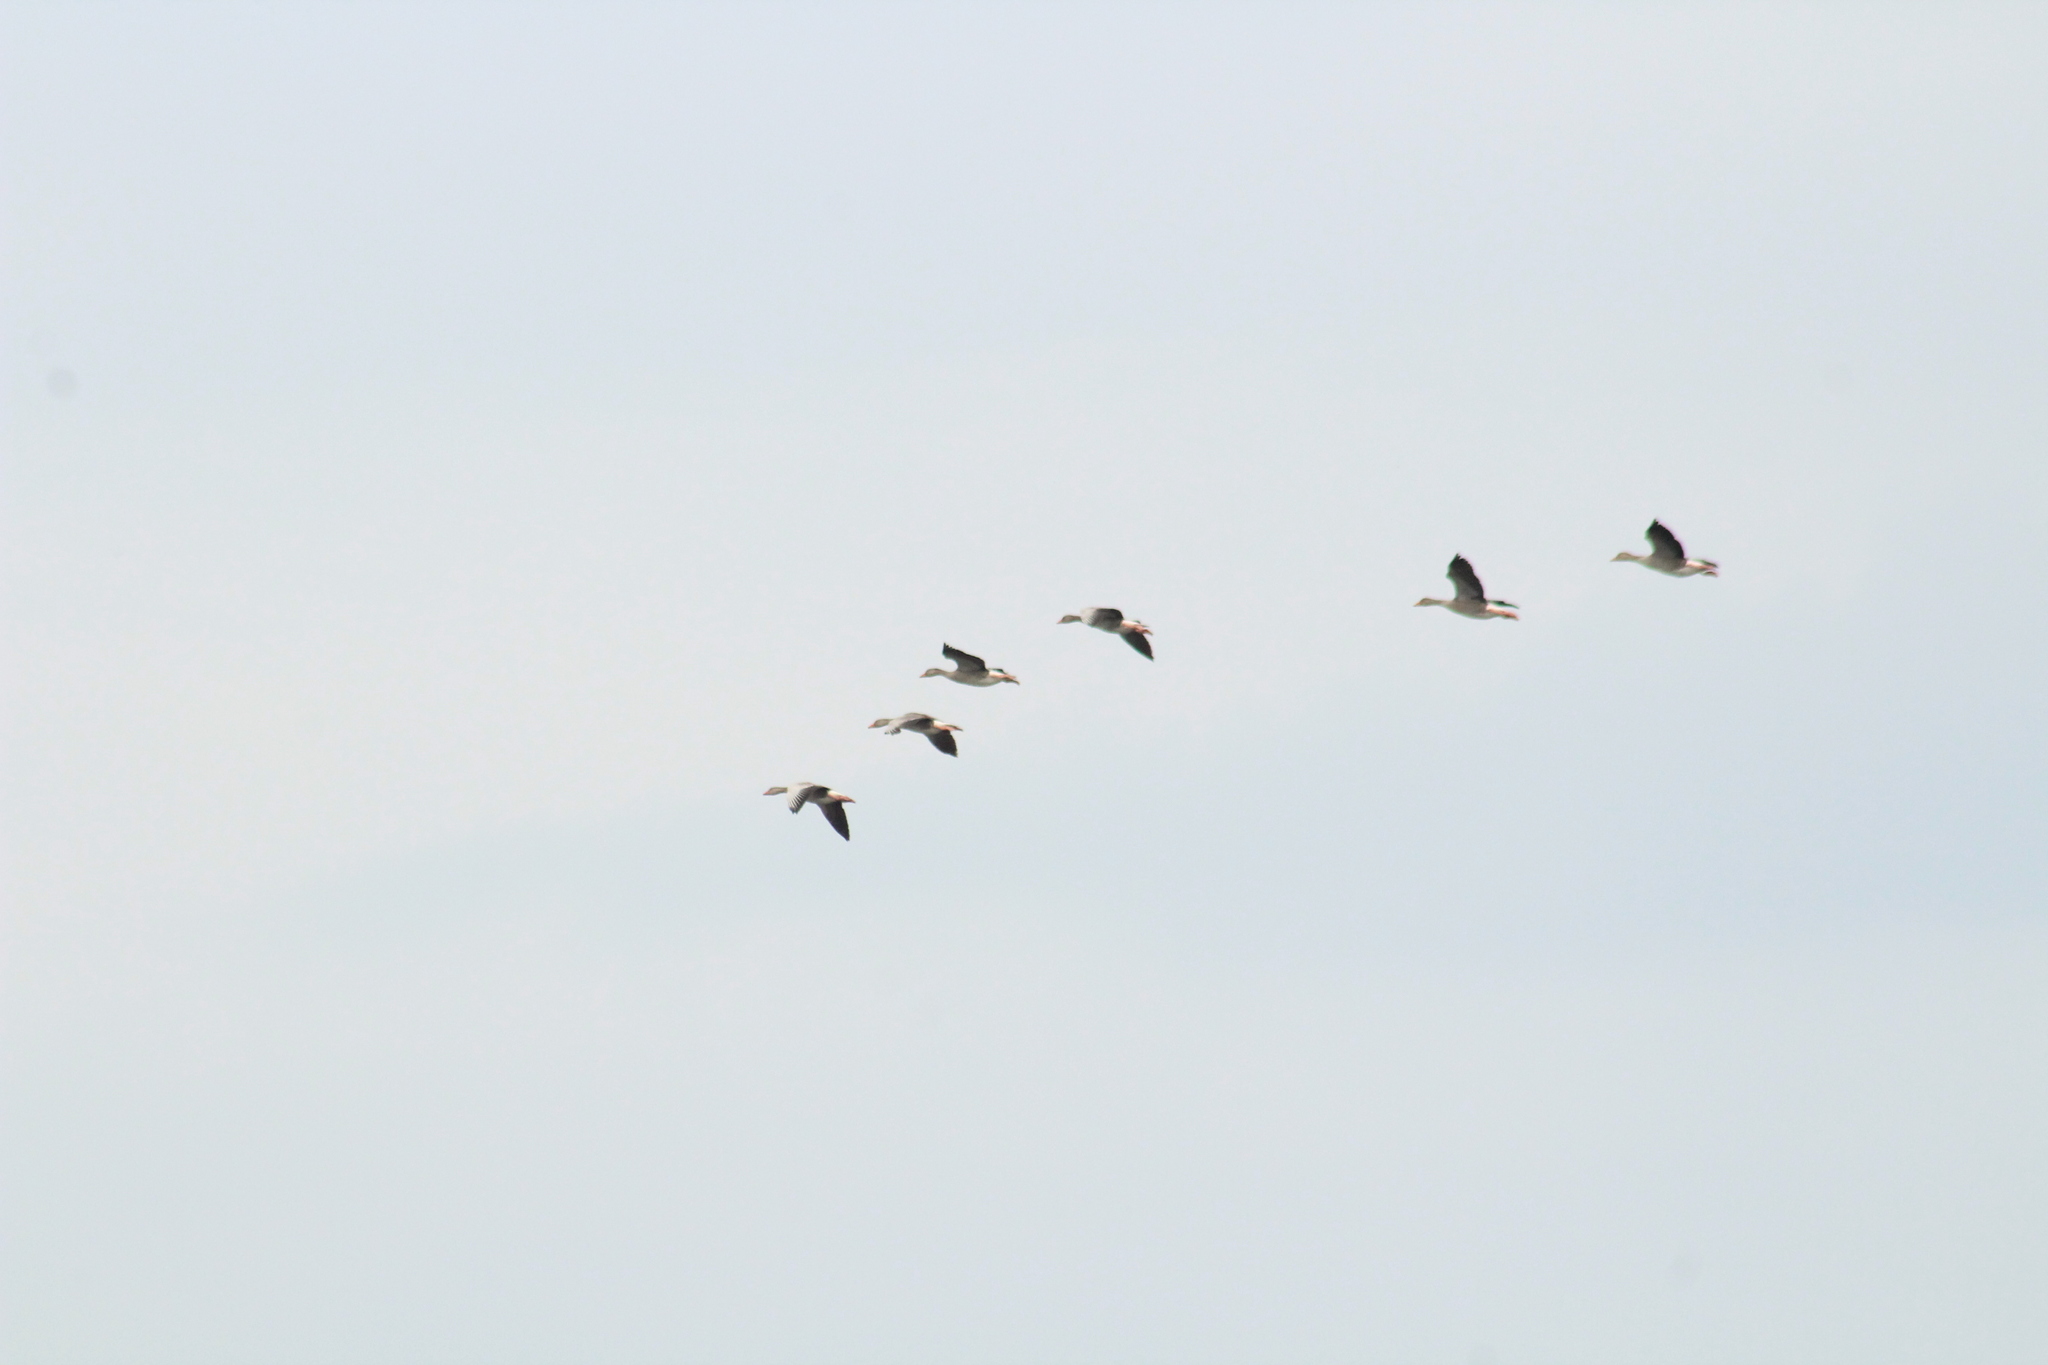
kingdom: Animalia
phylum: Chordata
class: Aves
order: Anseriformes
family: Anatidae
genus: Anser
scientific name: Anser anser
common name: Greylag goose
